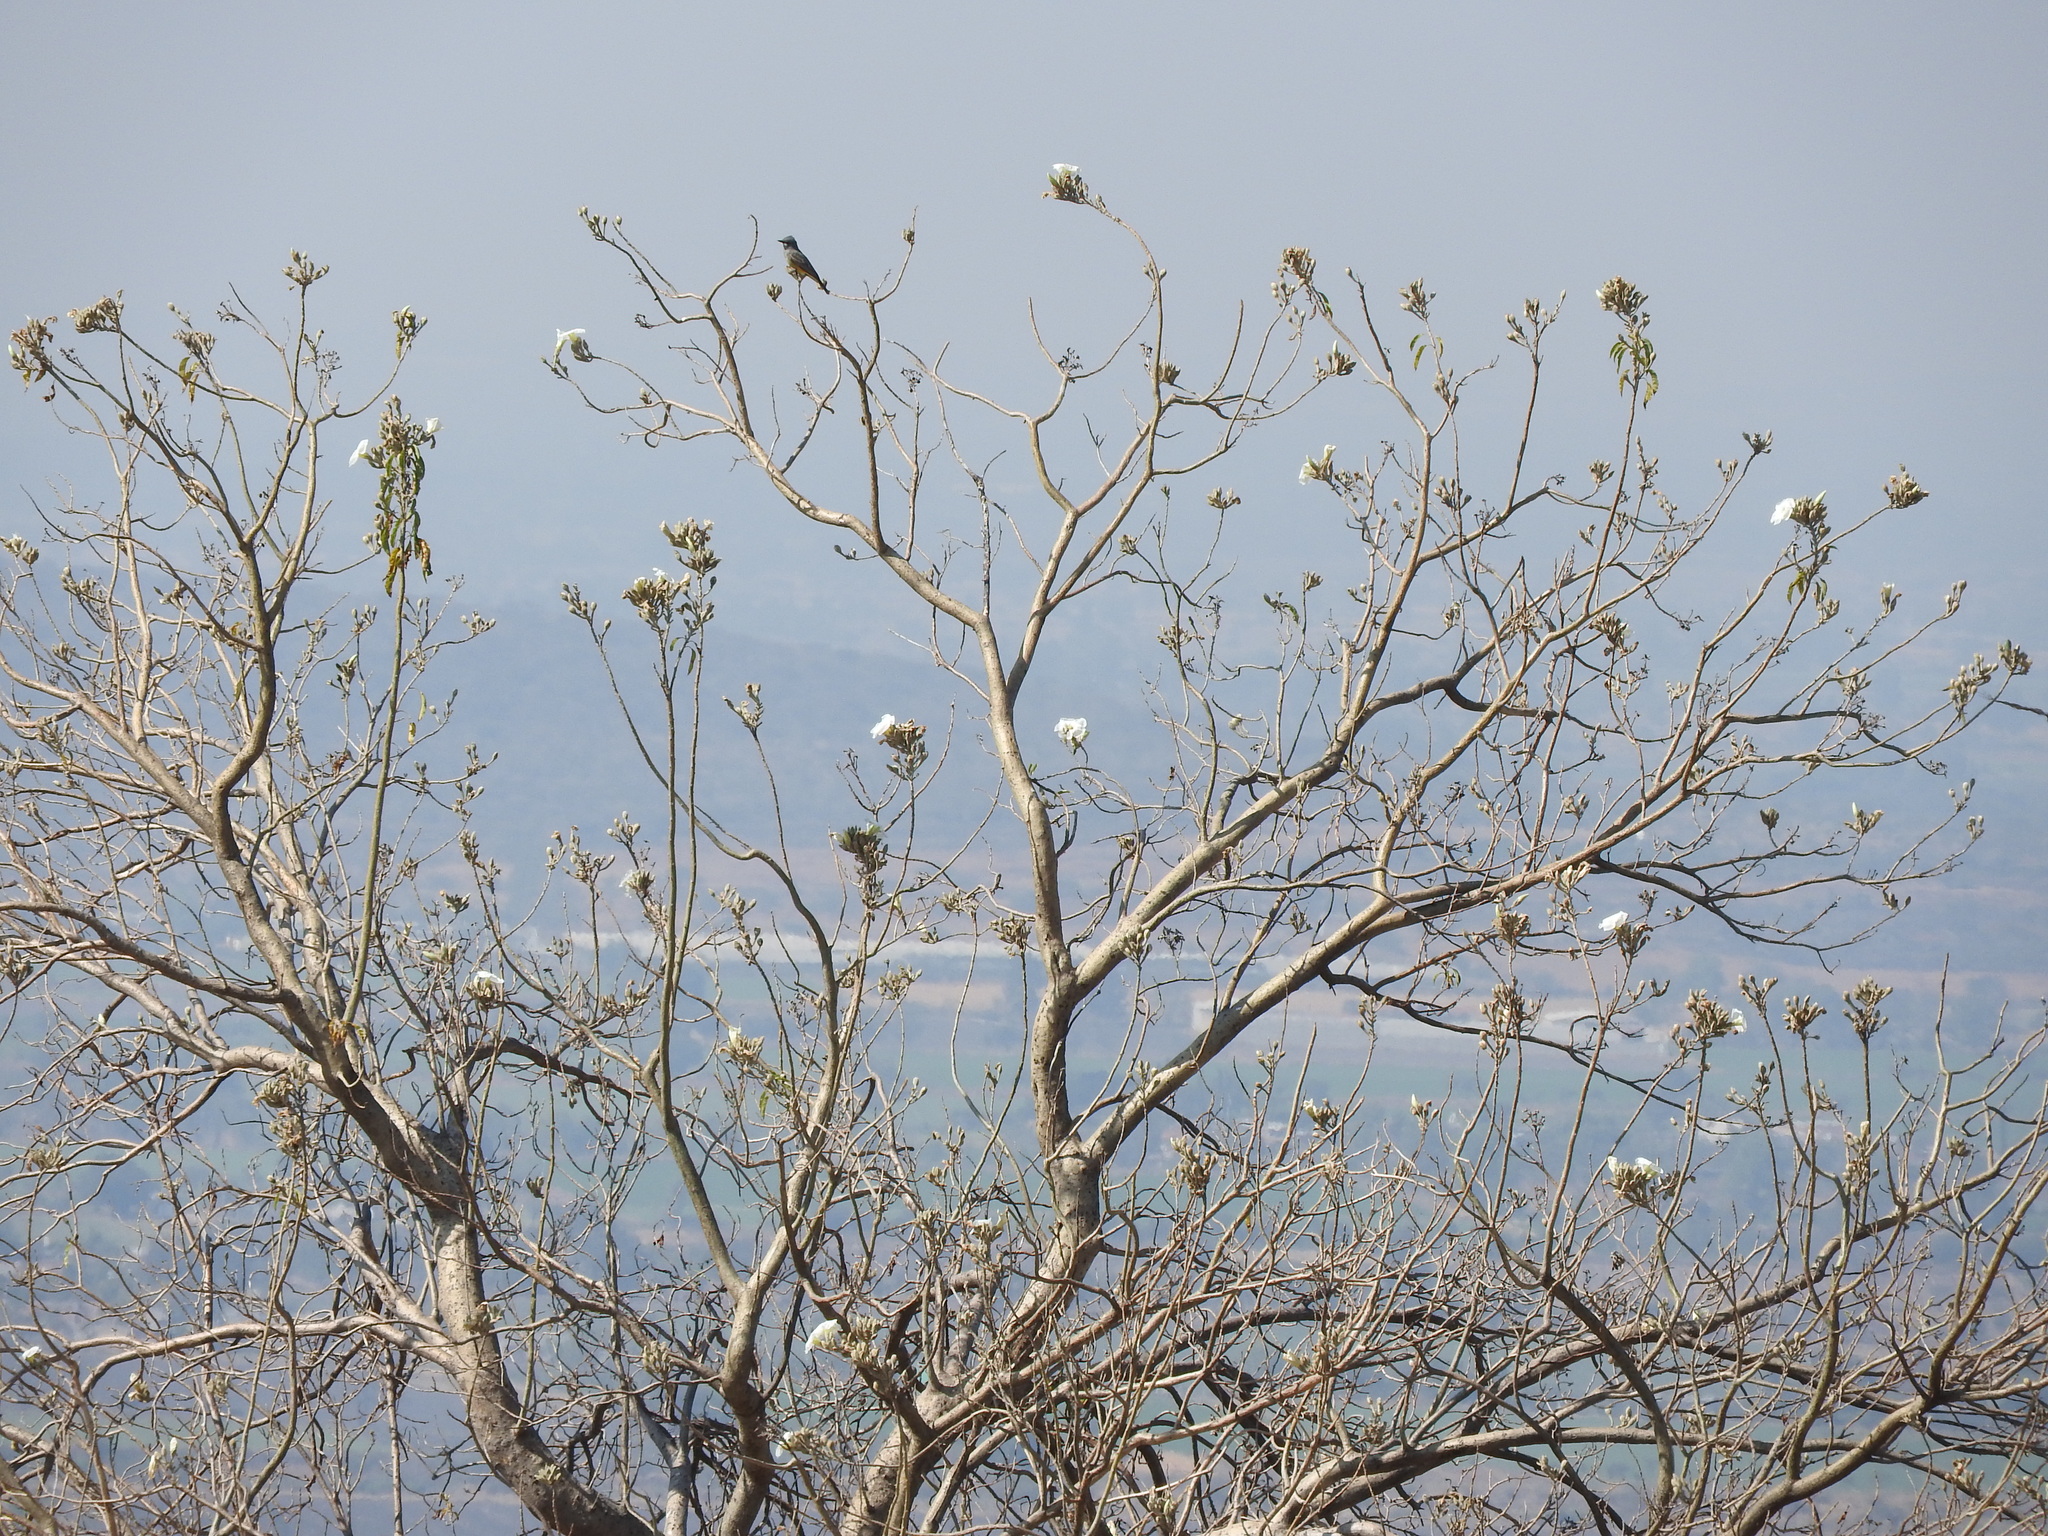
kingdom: Plantae
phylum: Tracheophyta
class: Magnoliopsida
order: Solanales
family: Convolvulaceae
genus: Ipomoea
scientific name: Ipomoea murucoides
